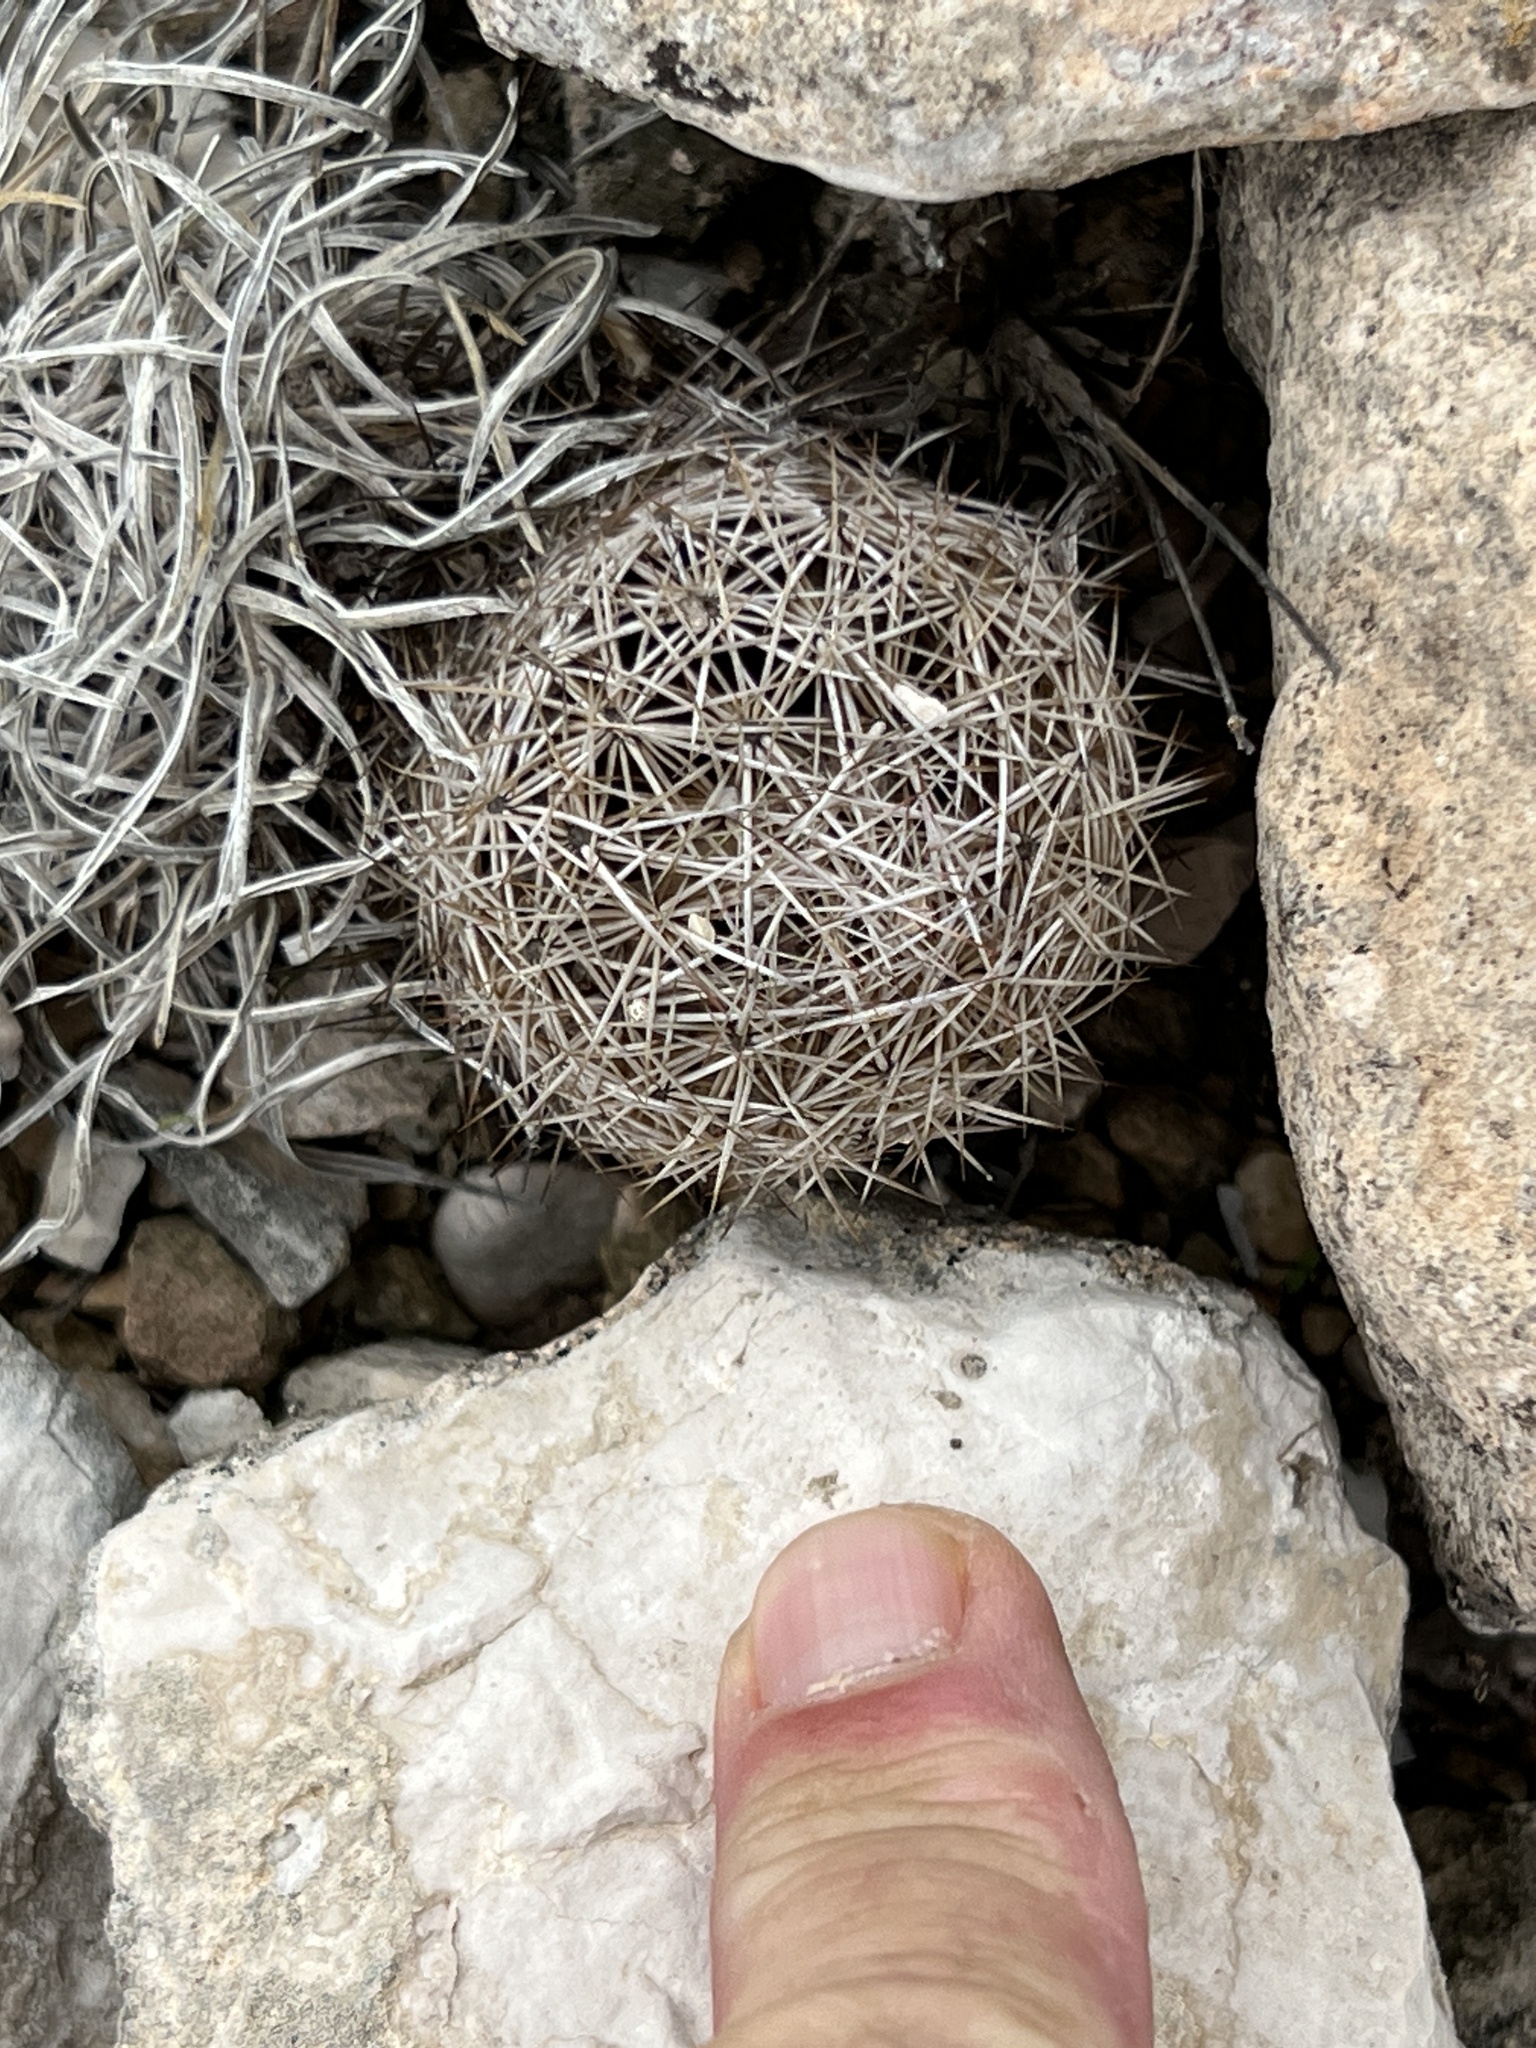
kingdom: Plantae
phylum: Tracheophyta
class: Magnoliopsida
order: Caryophyllales
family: Cactaceae
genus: Coryphantha
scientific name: Coryphantha echinus
